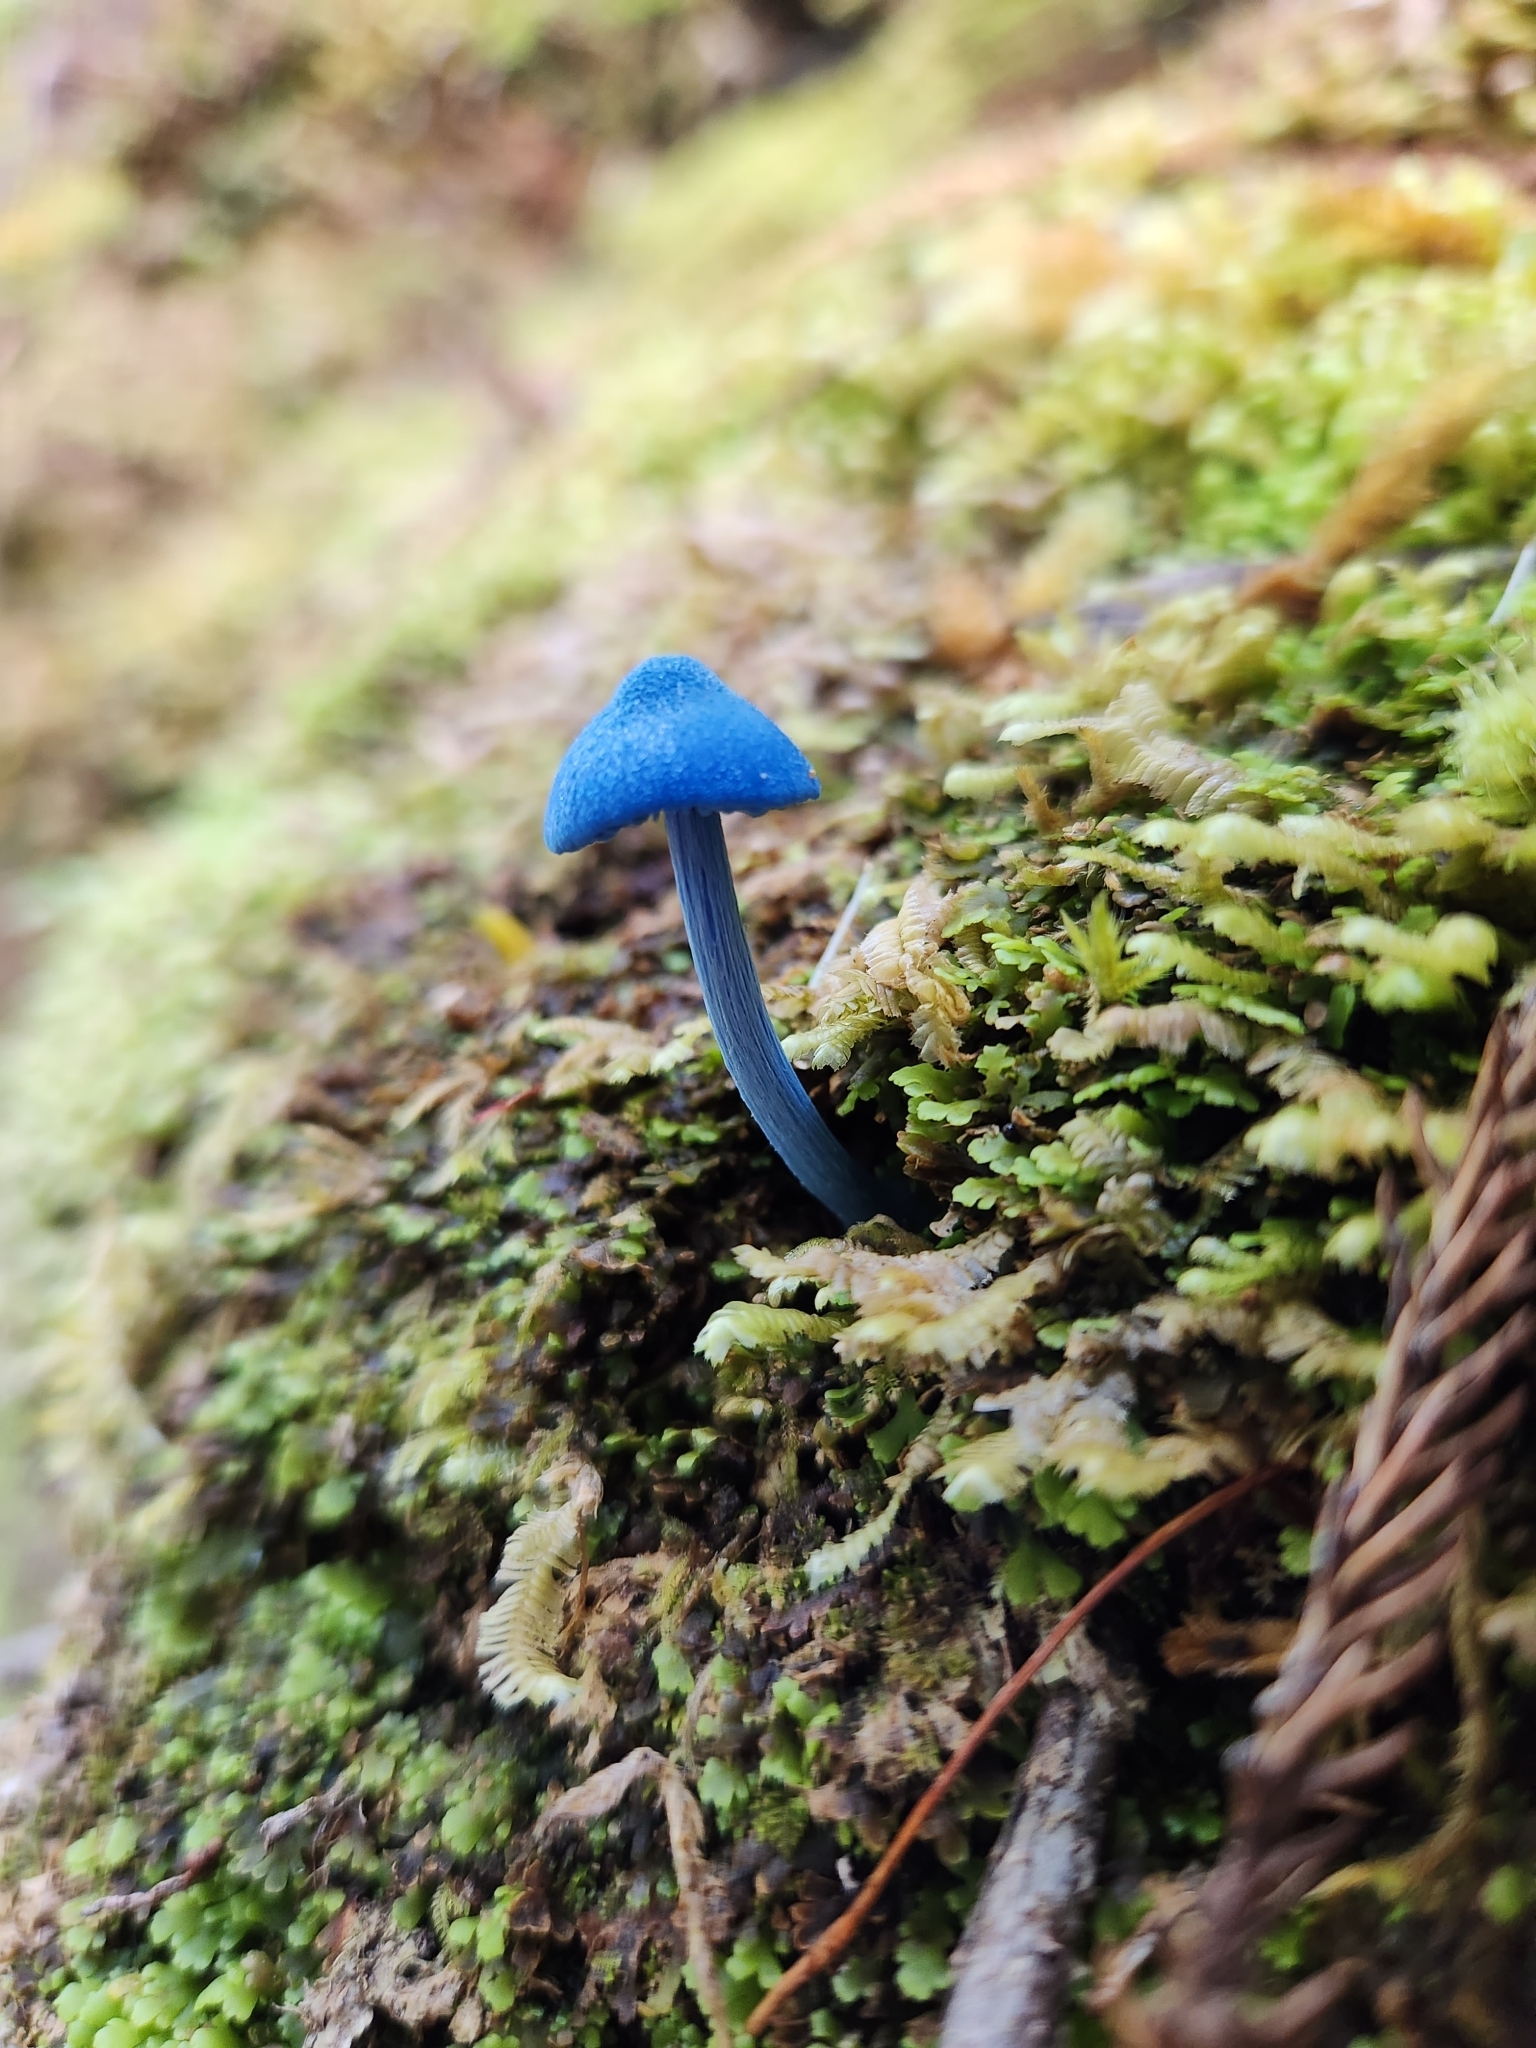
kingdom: Fungi
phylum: Basidiomycota
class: Agaricomycetes
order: Agaricales
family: Entolomataceae
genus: Entoloma
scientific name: Entoloma hochstetteri
